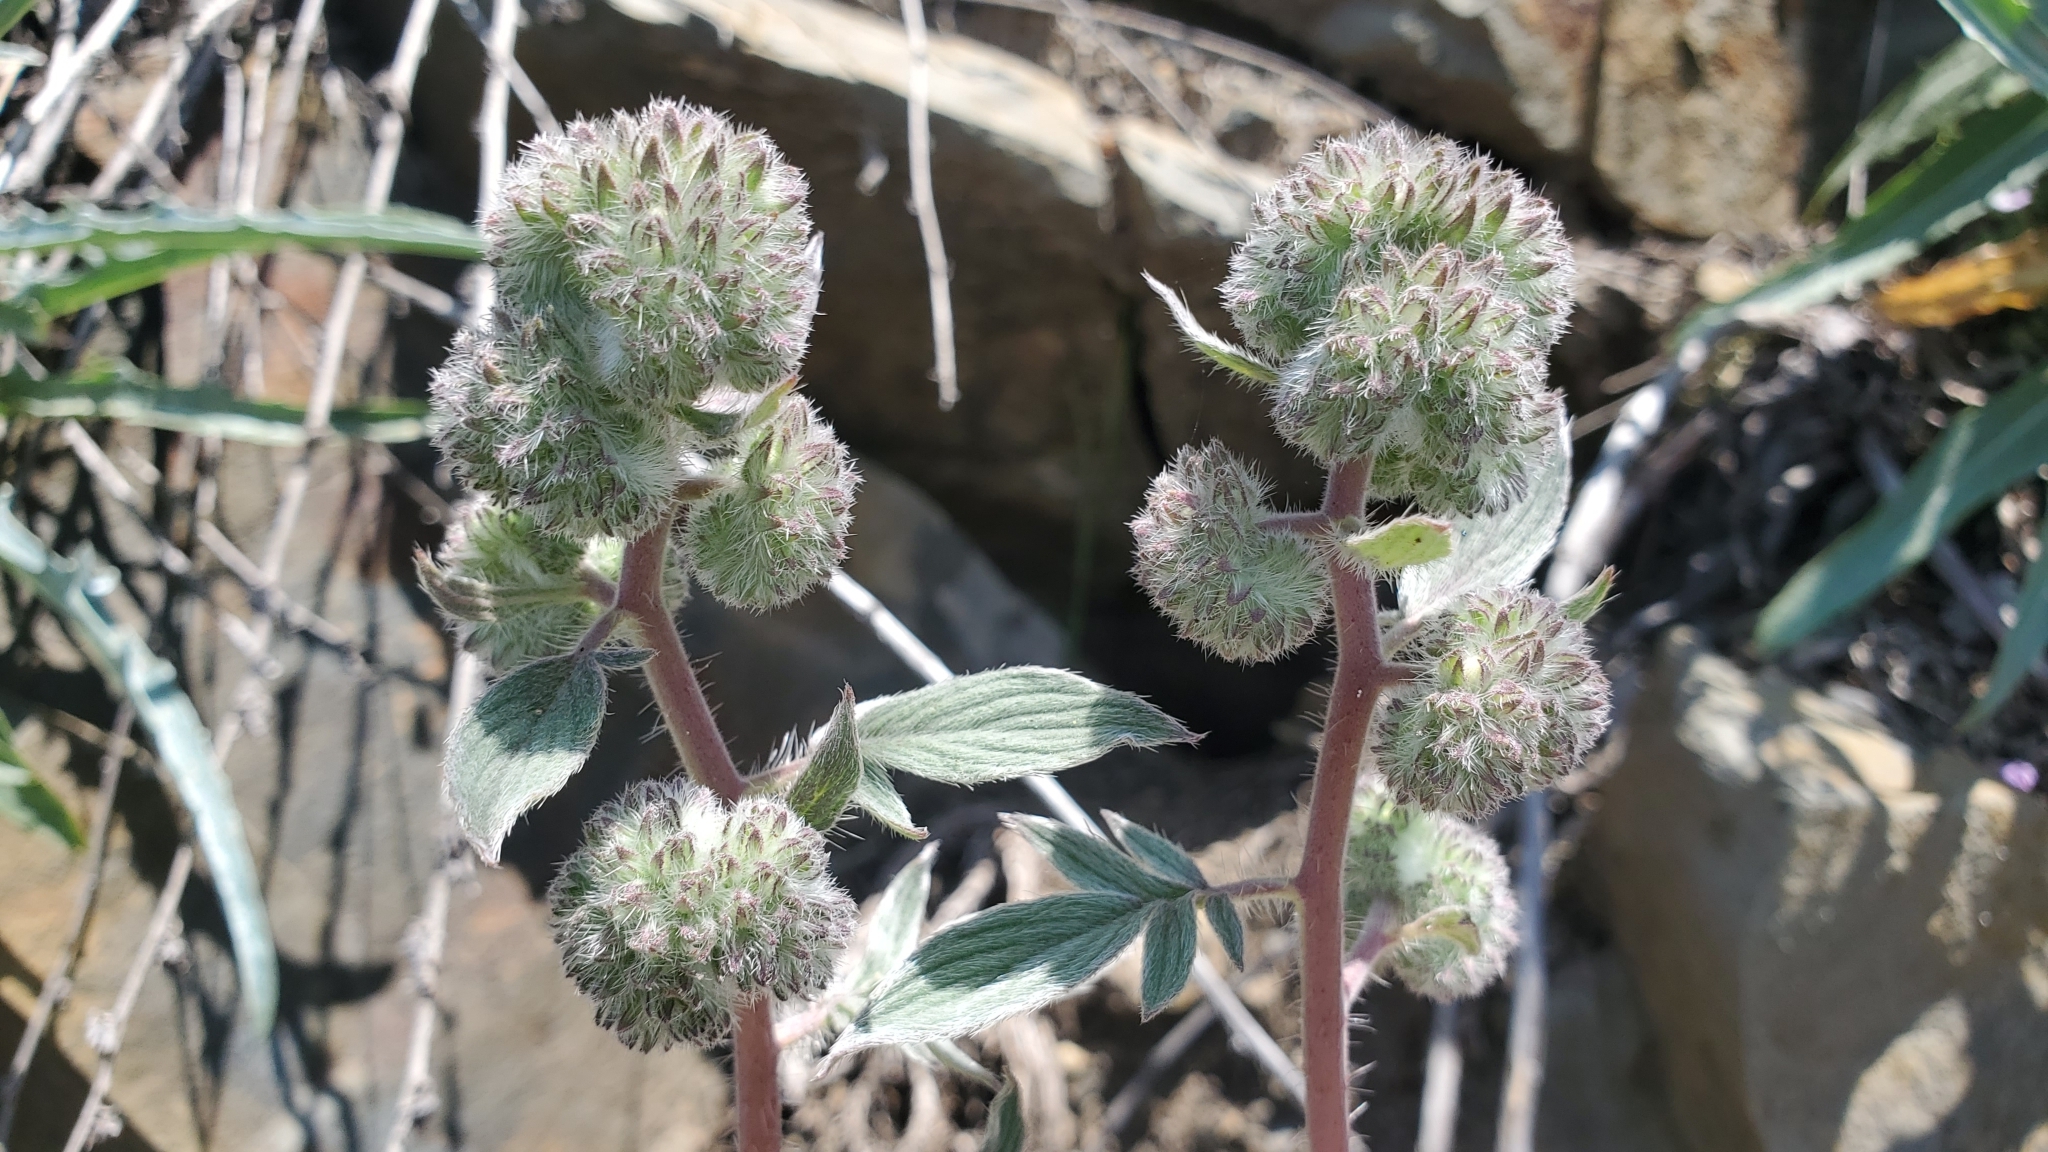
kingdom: Plantae
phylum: Tracheophyta
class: Magnoliopsida
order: Boraginales
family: Hydrophyllaceae
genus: Phacelia
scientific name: Phacelia imbricata
